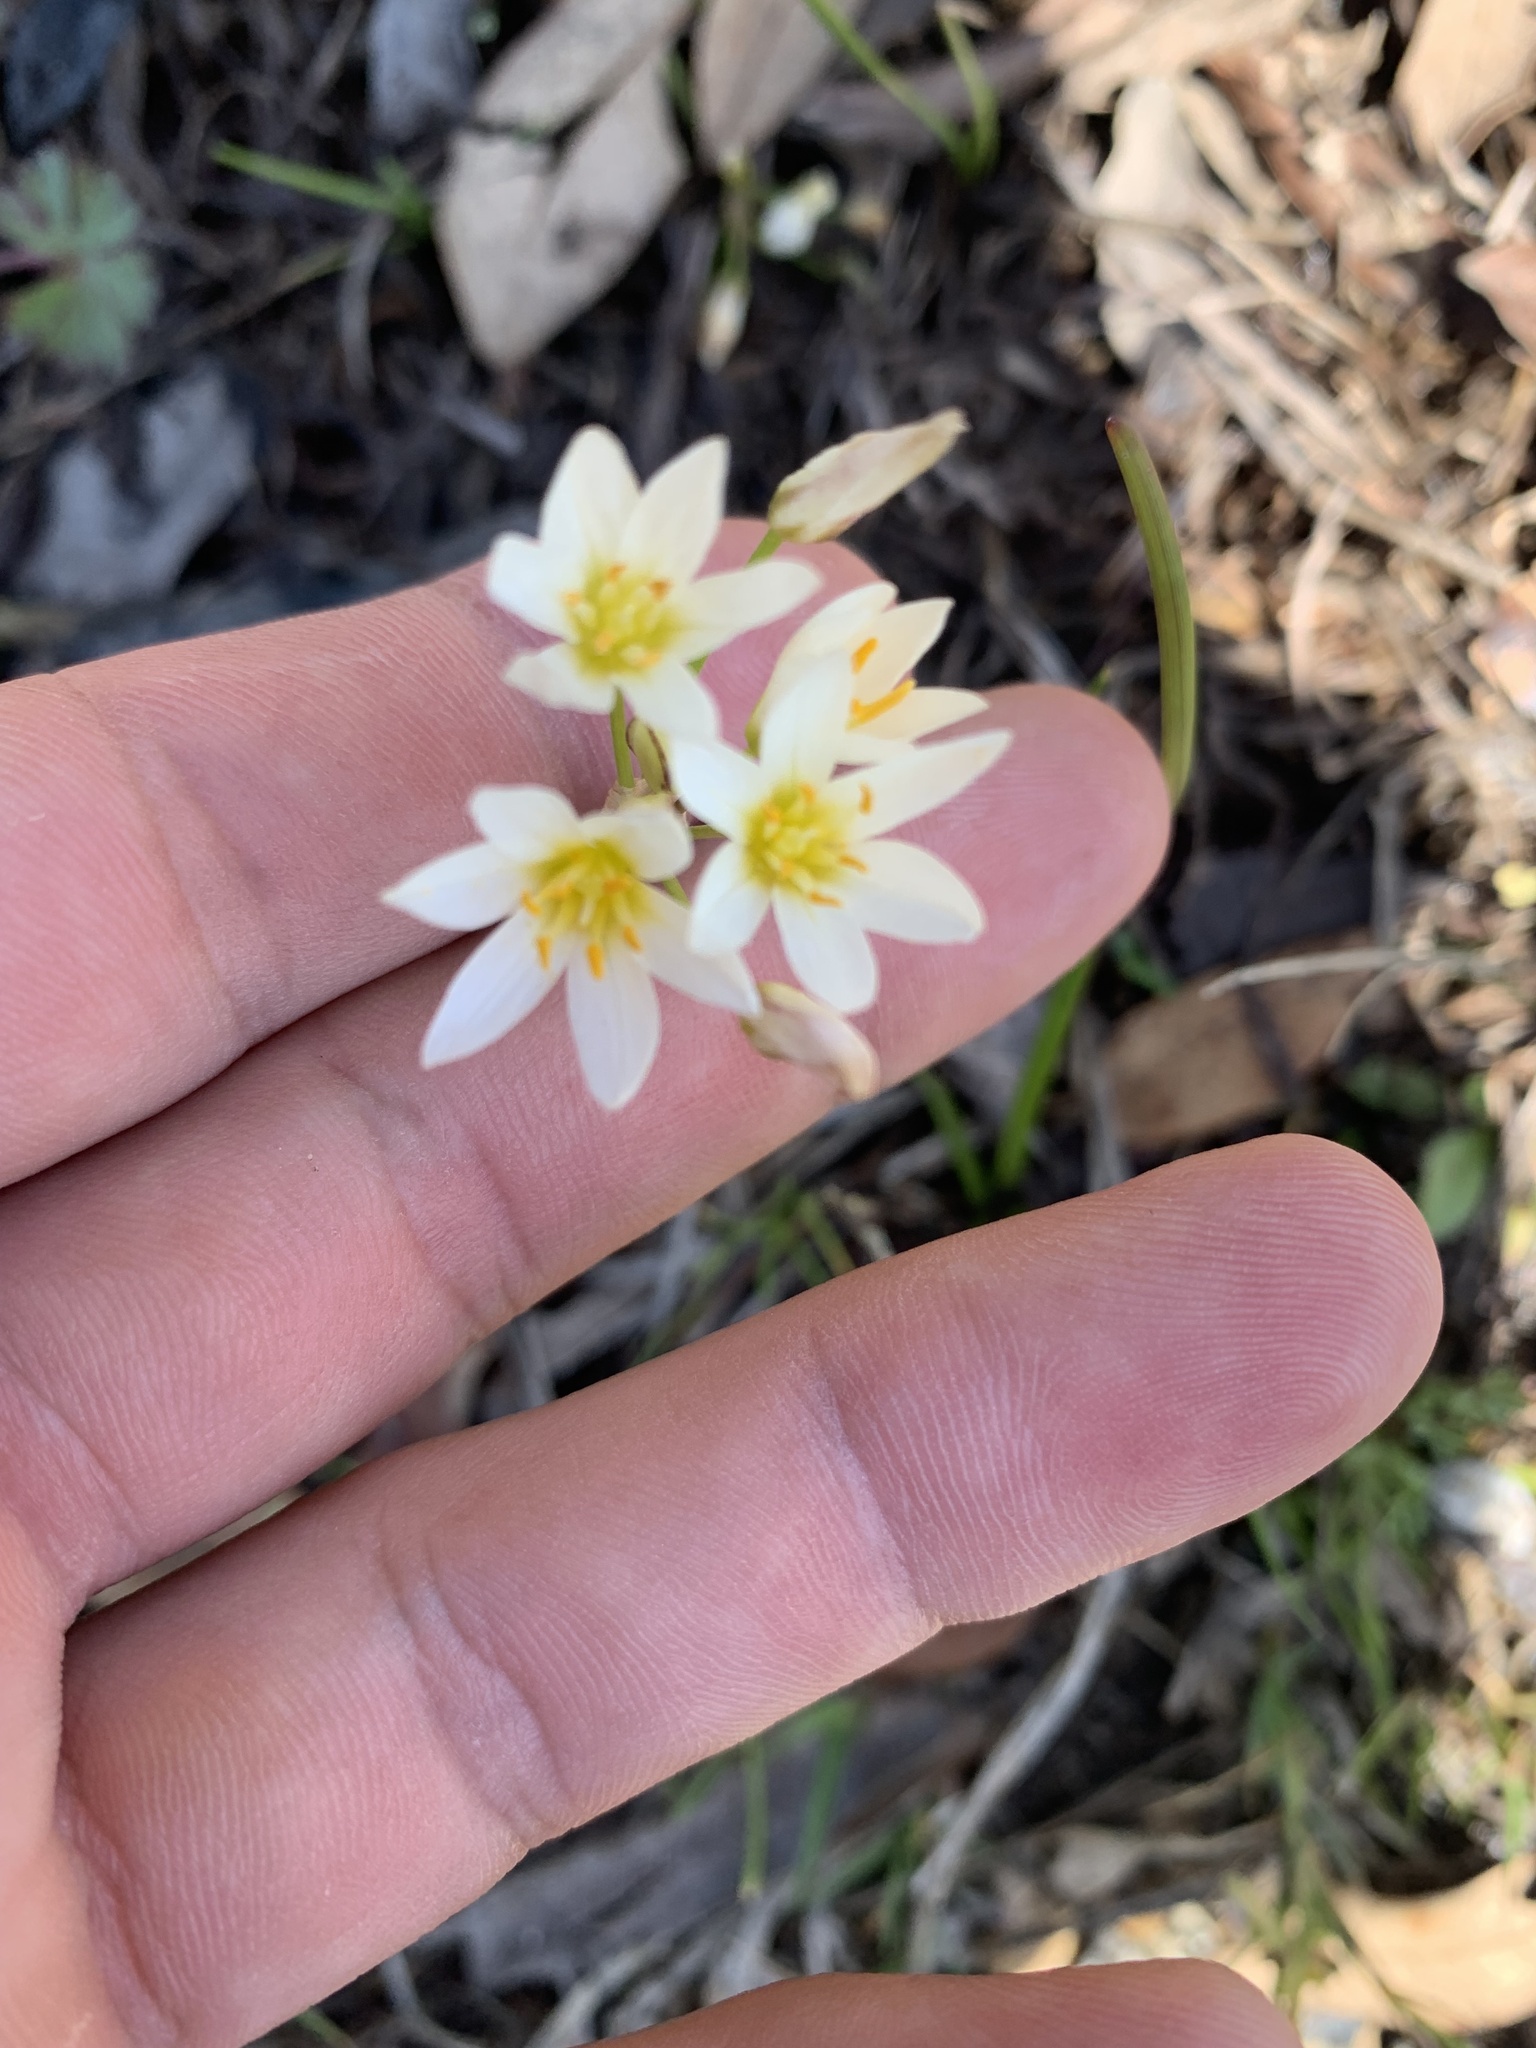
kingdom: Plantae
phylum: Tracheophyta
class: Liliopsida
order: Asparagales
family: Amaryllidaceae
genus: Nothoscordum
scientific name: Nothoscordum bivalve
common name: Crow-poison
